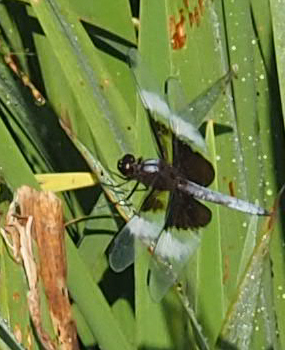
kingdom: Animalia
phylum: Arthropoda
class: Insecta
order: Odonata
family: Libellulidae
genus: Libellula
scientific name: Libellula luctuosa
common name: Widow skimmer
